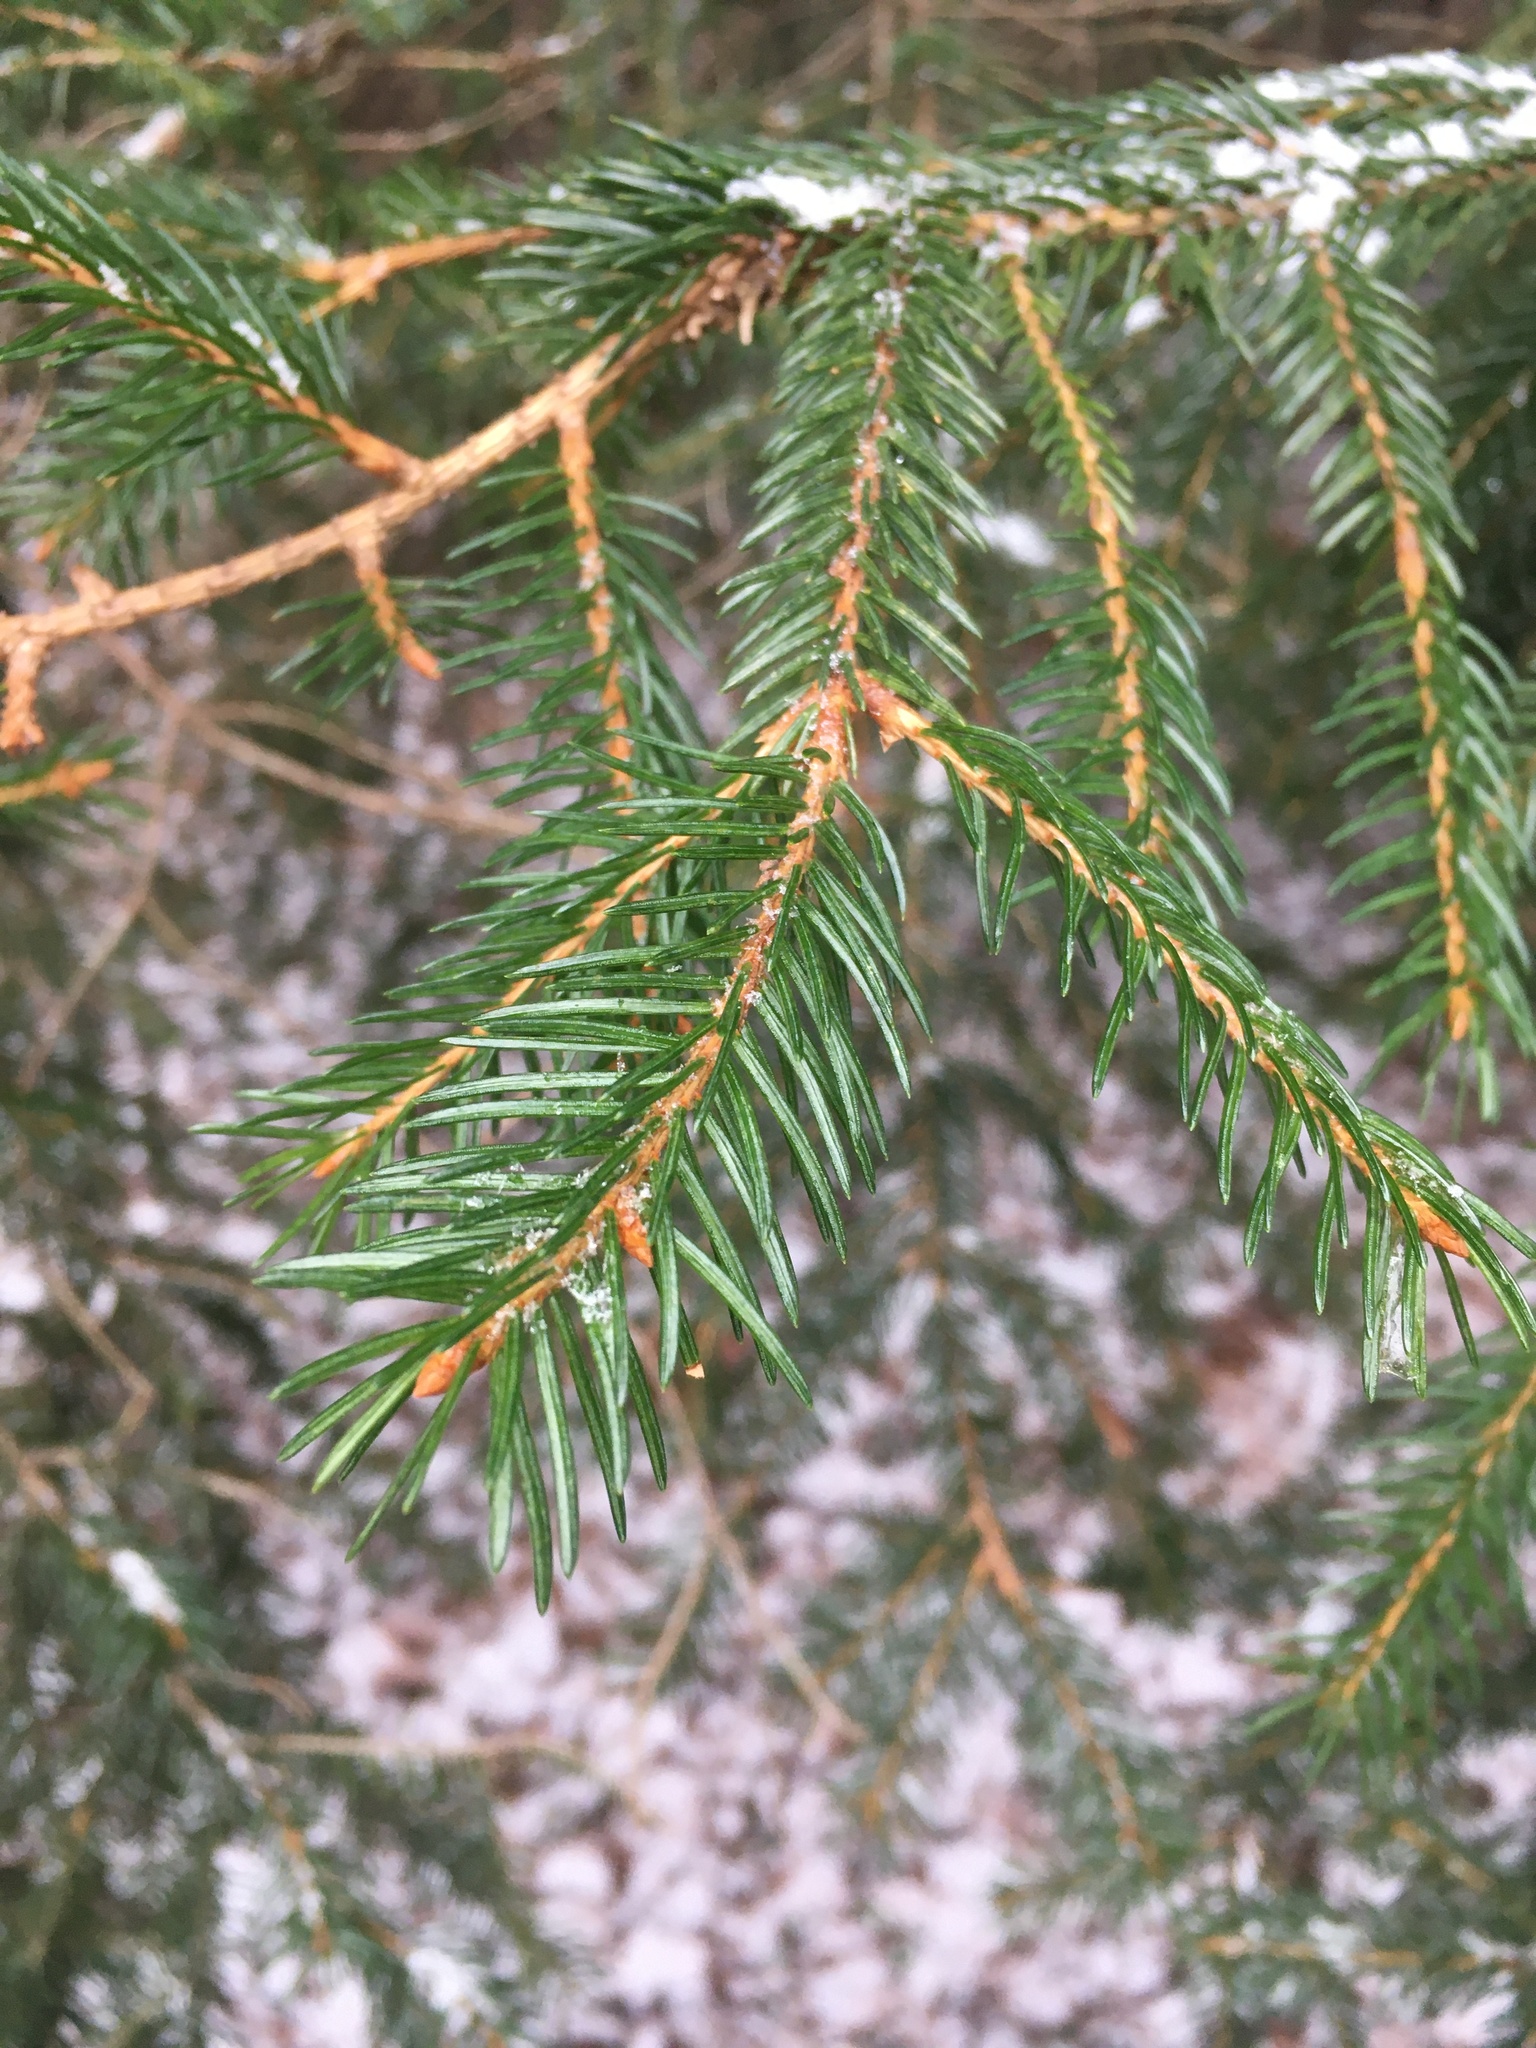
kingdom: Plantae
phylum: Tracheophyta
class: Pinopsida
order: Pinales
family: Pinaceae
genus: Picea
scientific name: Picea rubens
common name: Red spruce
